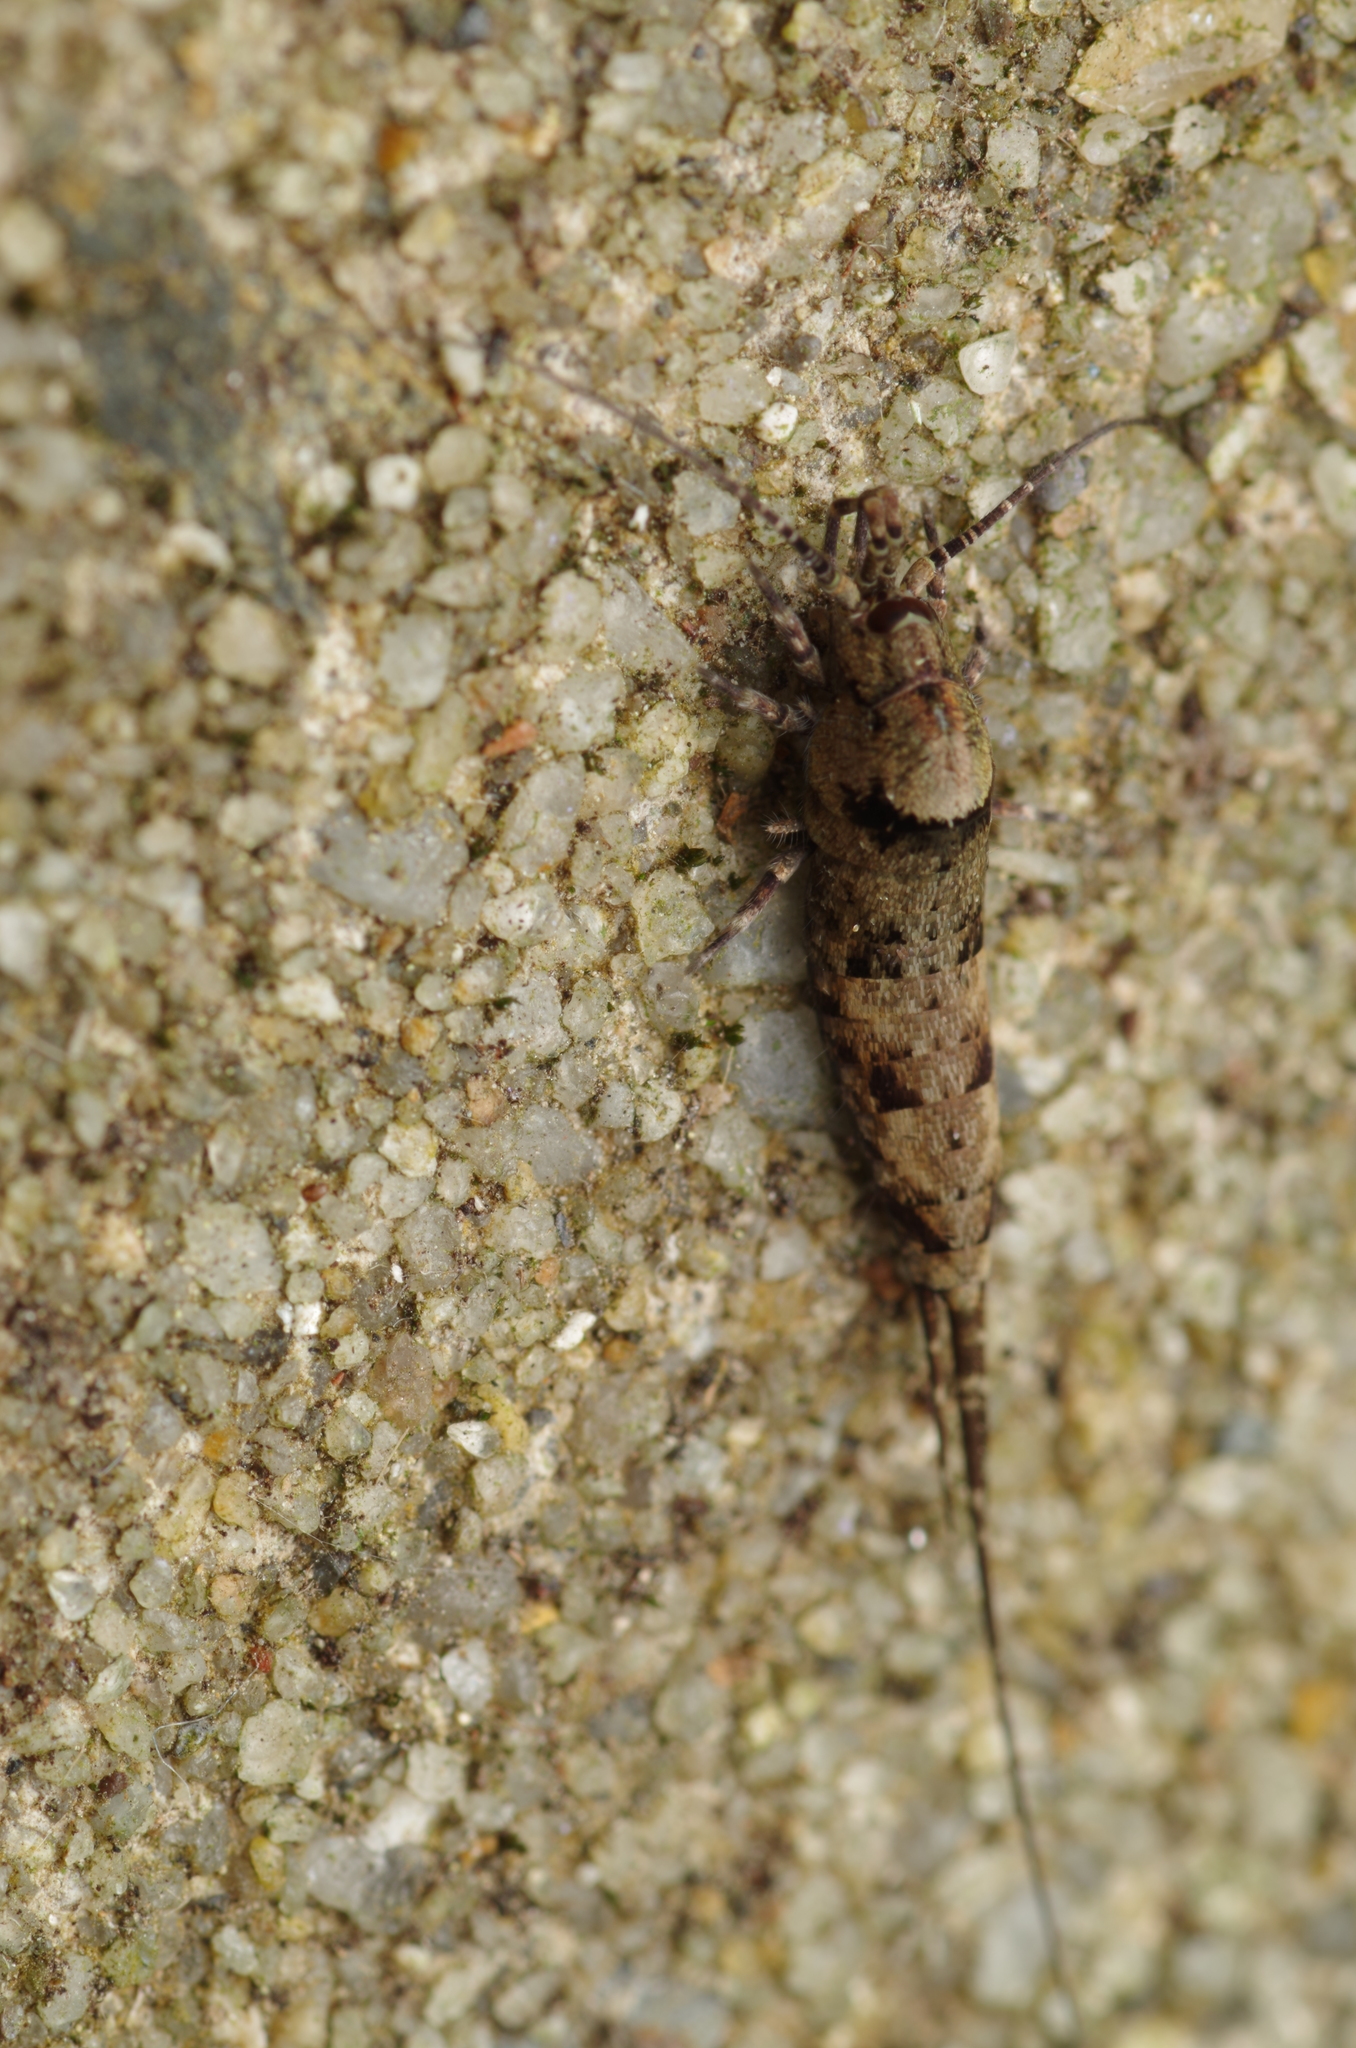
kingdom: Animalia
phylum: Arthropoda
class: Insecta
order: Archaeognatha
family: Machilidae
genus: Trigoniophthalmus
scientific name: Trigoniophthalmus alternatus
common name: Jumping bristletail
